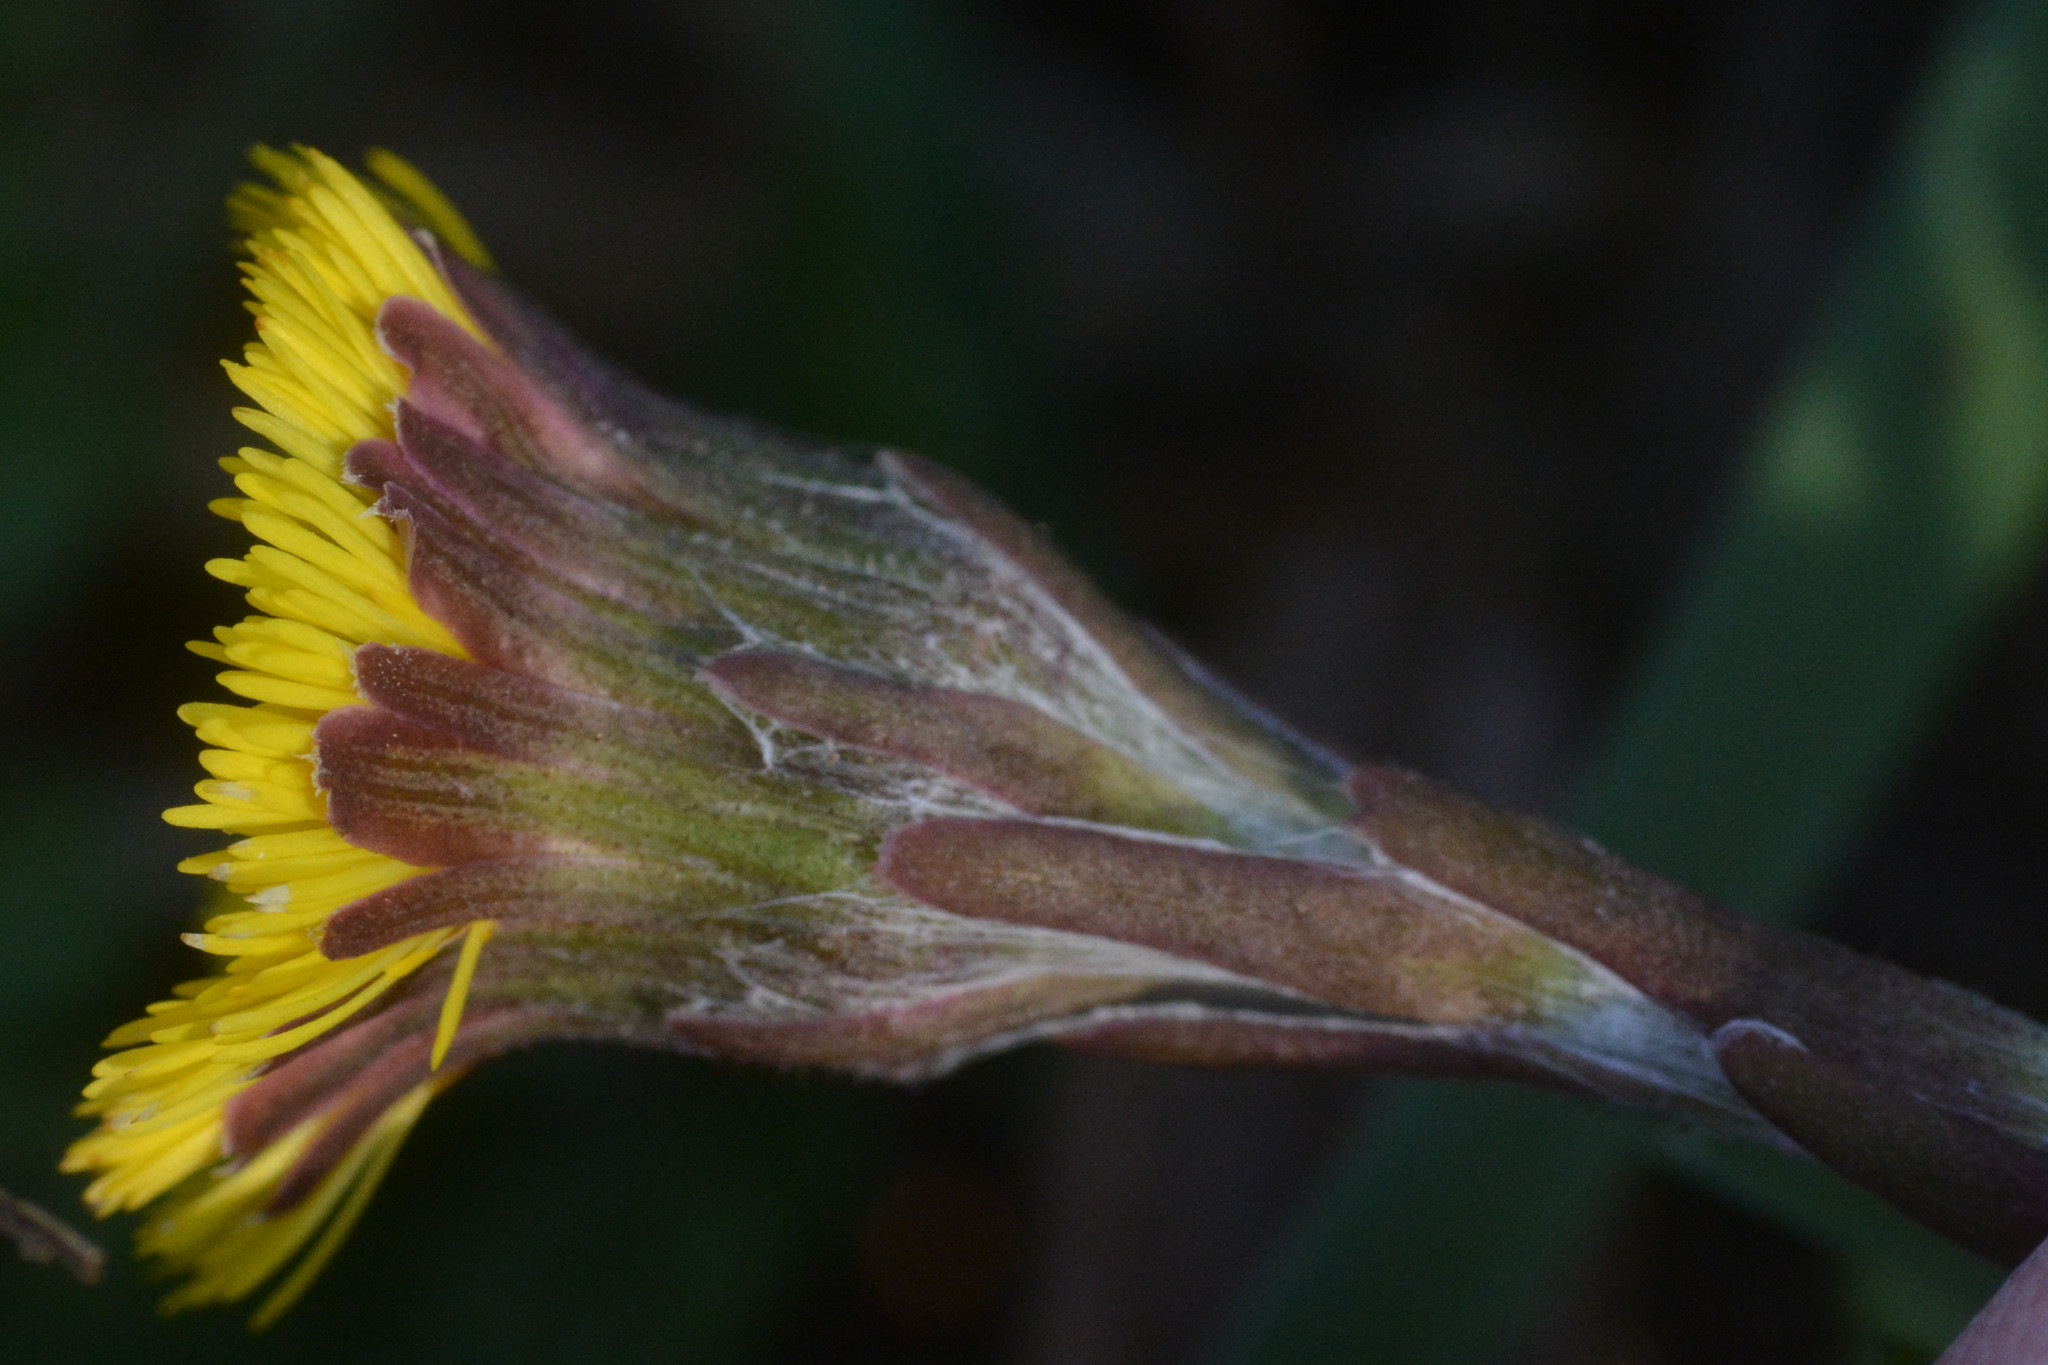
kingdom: Plantae
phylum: Tracheophyta
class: Magnoliopsida
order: Asterales
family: Asteraceae
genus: Tussilago
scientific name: Tussilago farfara
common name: Coltsfoot
